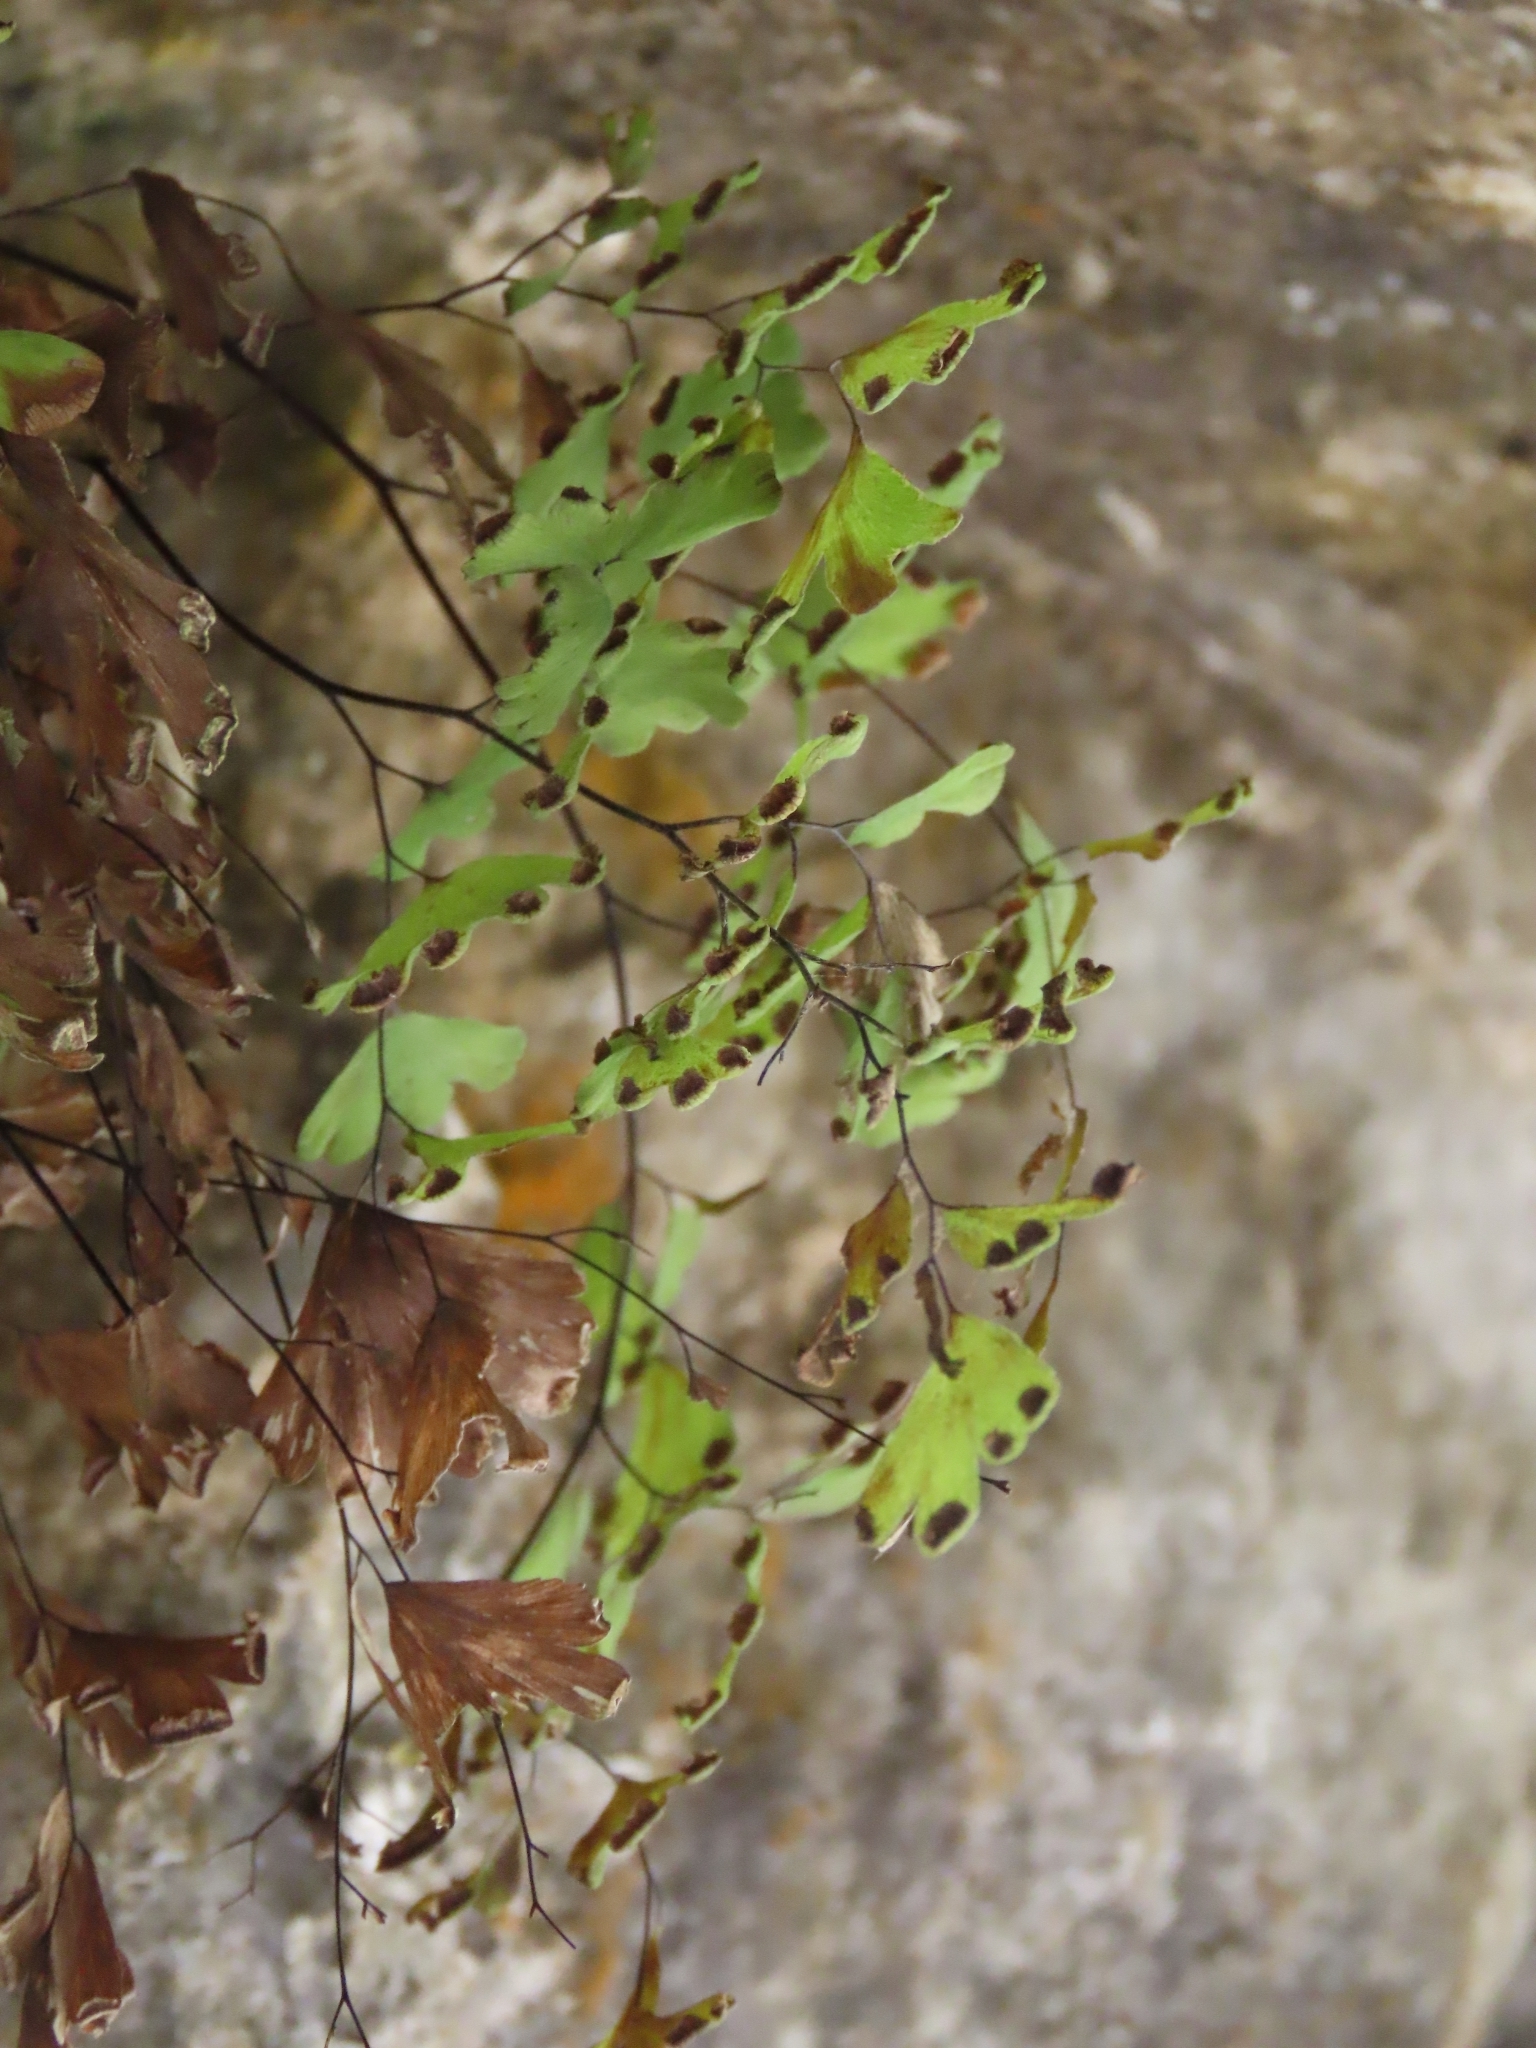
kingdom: Plantae
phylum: Tracheophyta
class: Polypodiopsida
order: Polypodiales
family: Pteridaceae
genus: Adiantum
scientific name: Adiantum capillus-veneris
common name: Maidenhair fern
